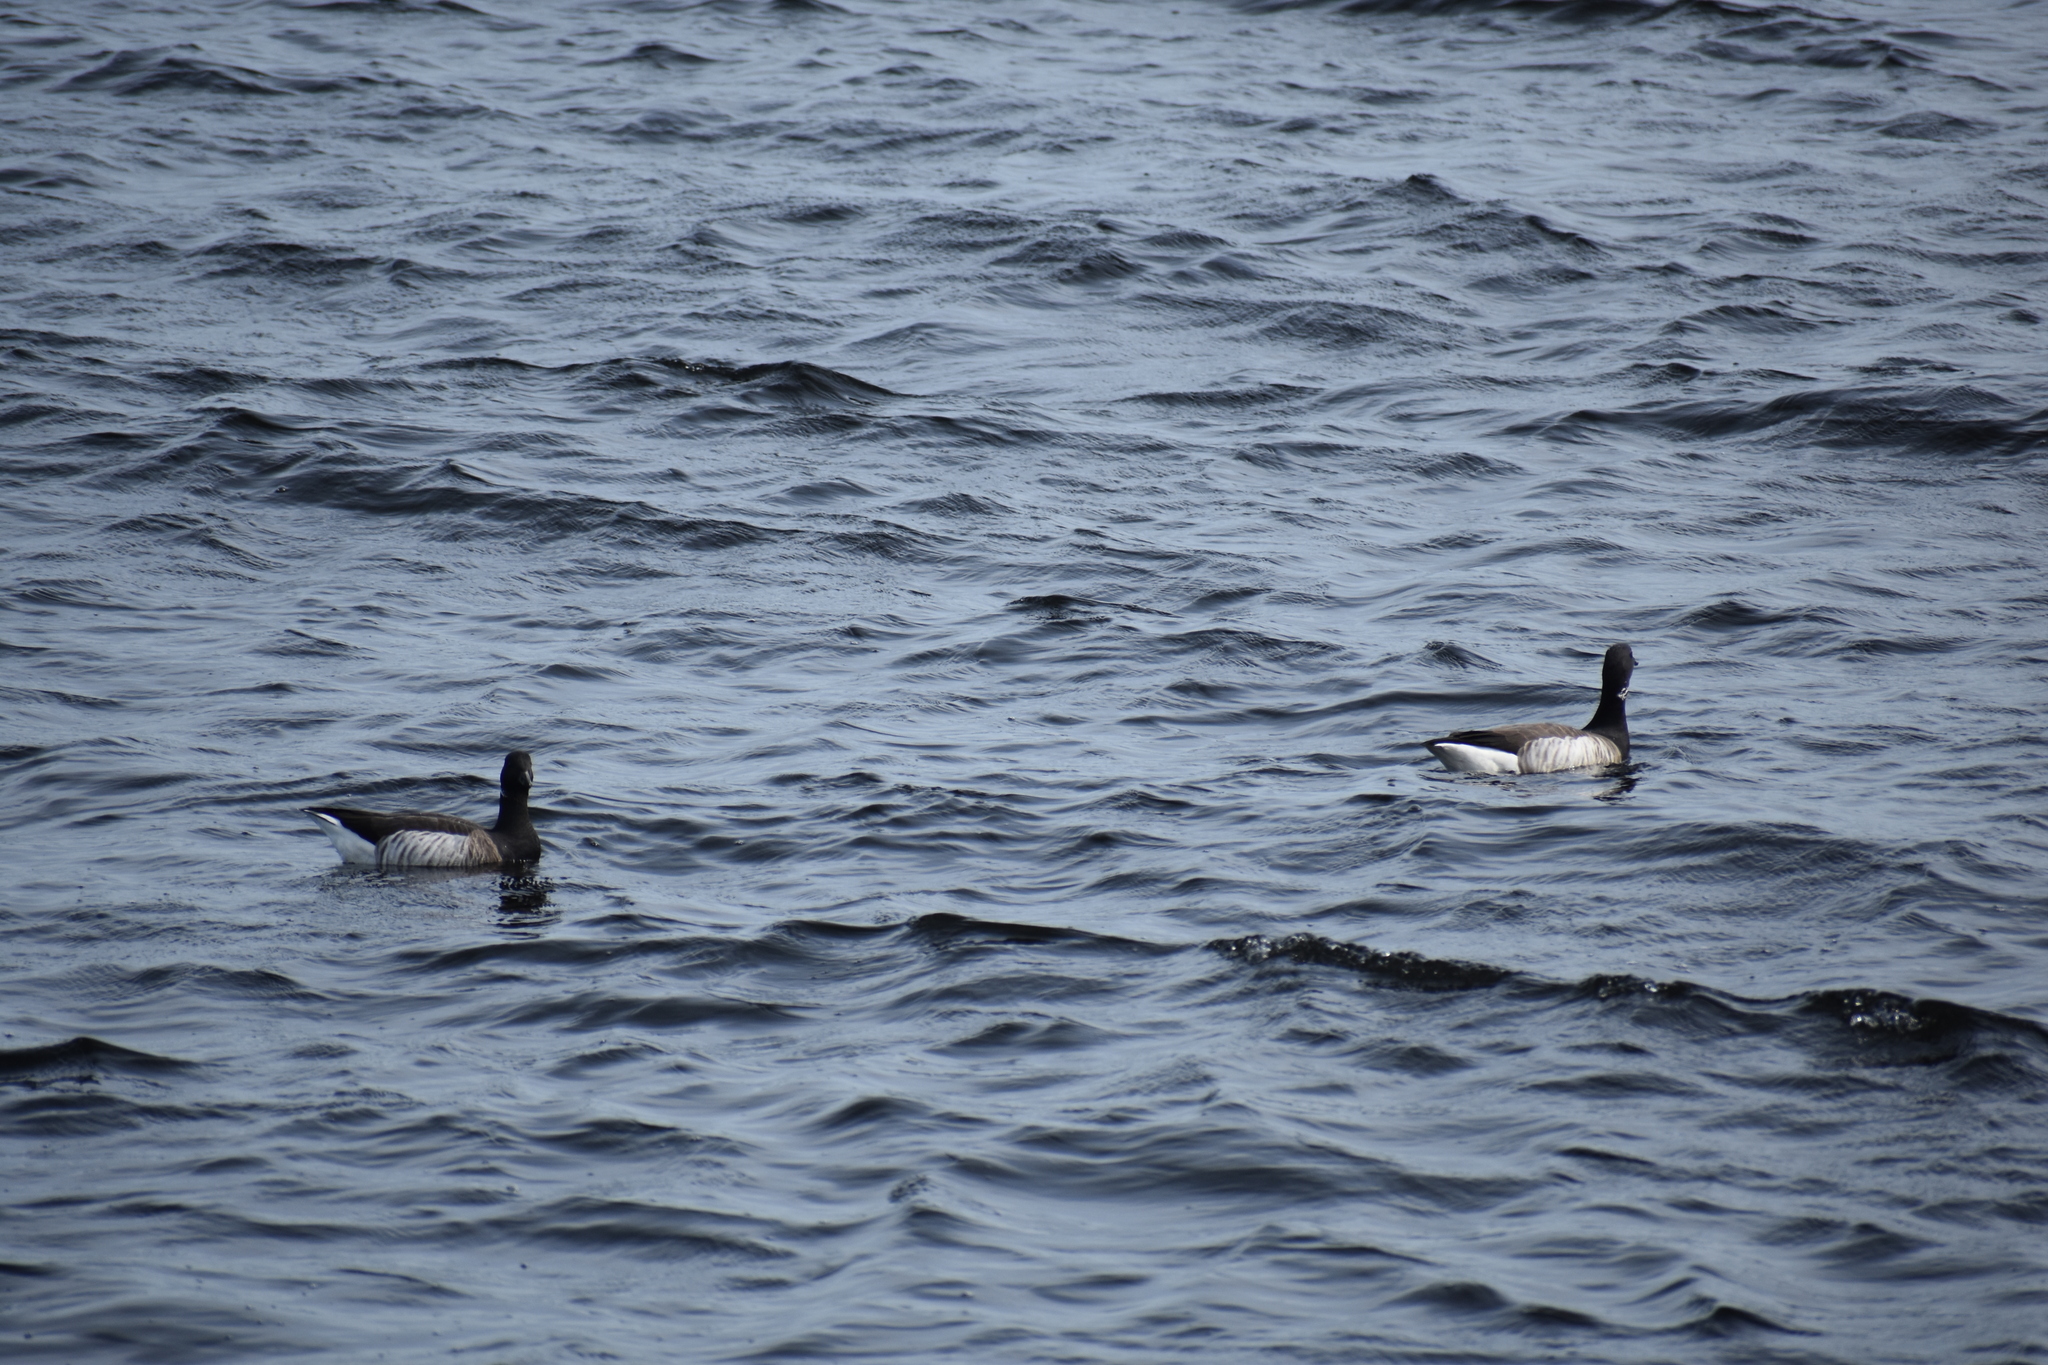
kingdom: Animalia
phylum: Chordata
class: Aves
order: Anseriformes
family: Anatidae
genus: Branta
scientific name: Branta bernicla
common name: Brant goose
